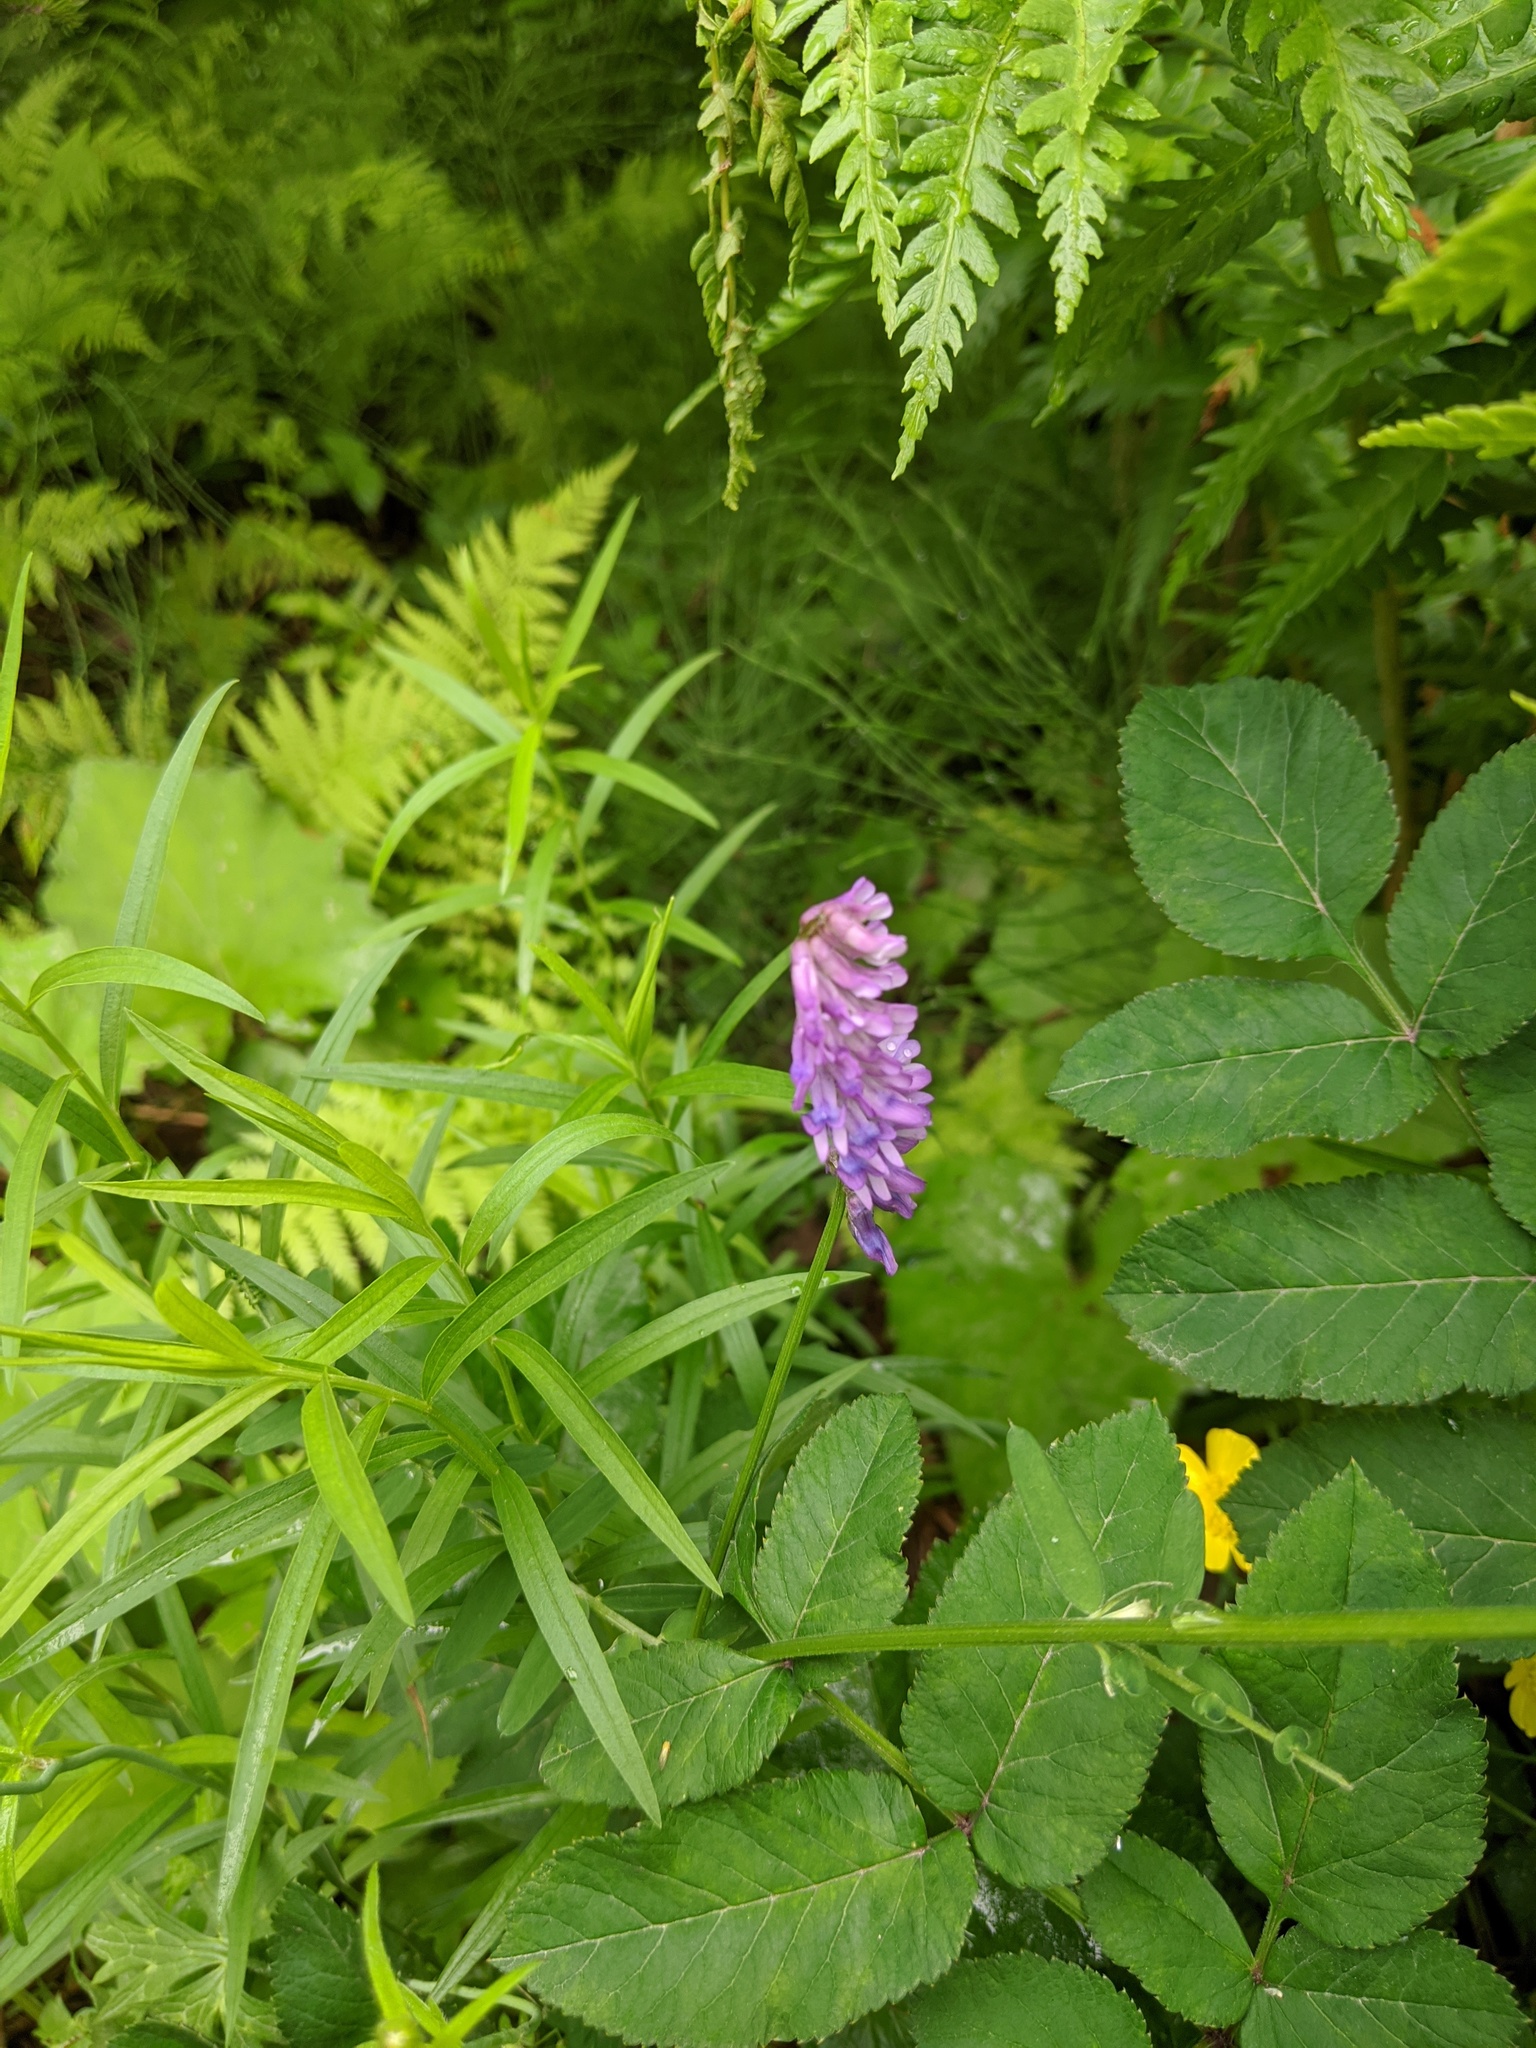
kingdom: Plantae
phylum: Tracheophyta
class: Magnoliopsida
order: Fabales
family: Fabaceae
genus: Vicia
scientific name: Vicia cracca
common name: Bird vetch
